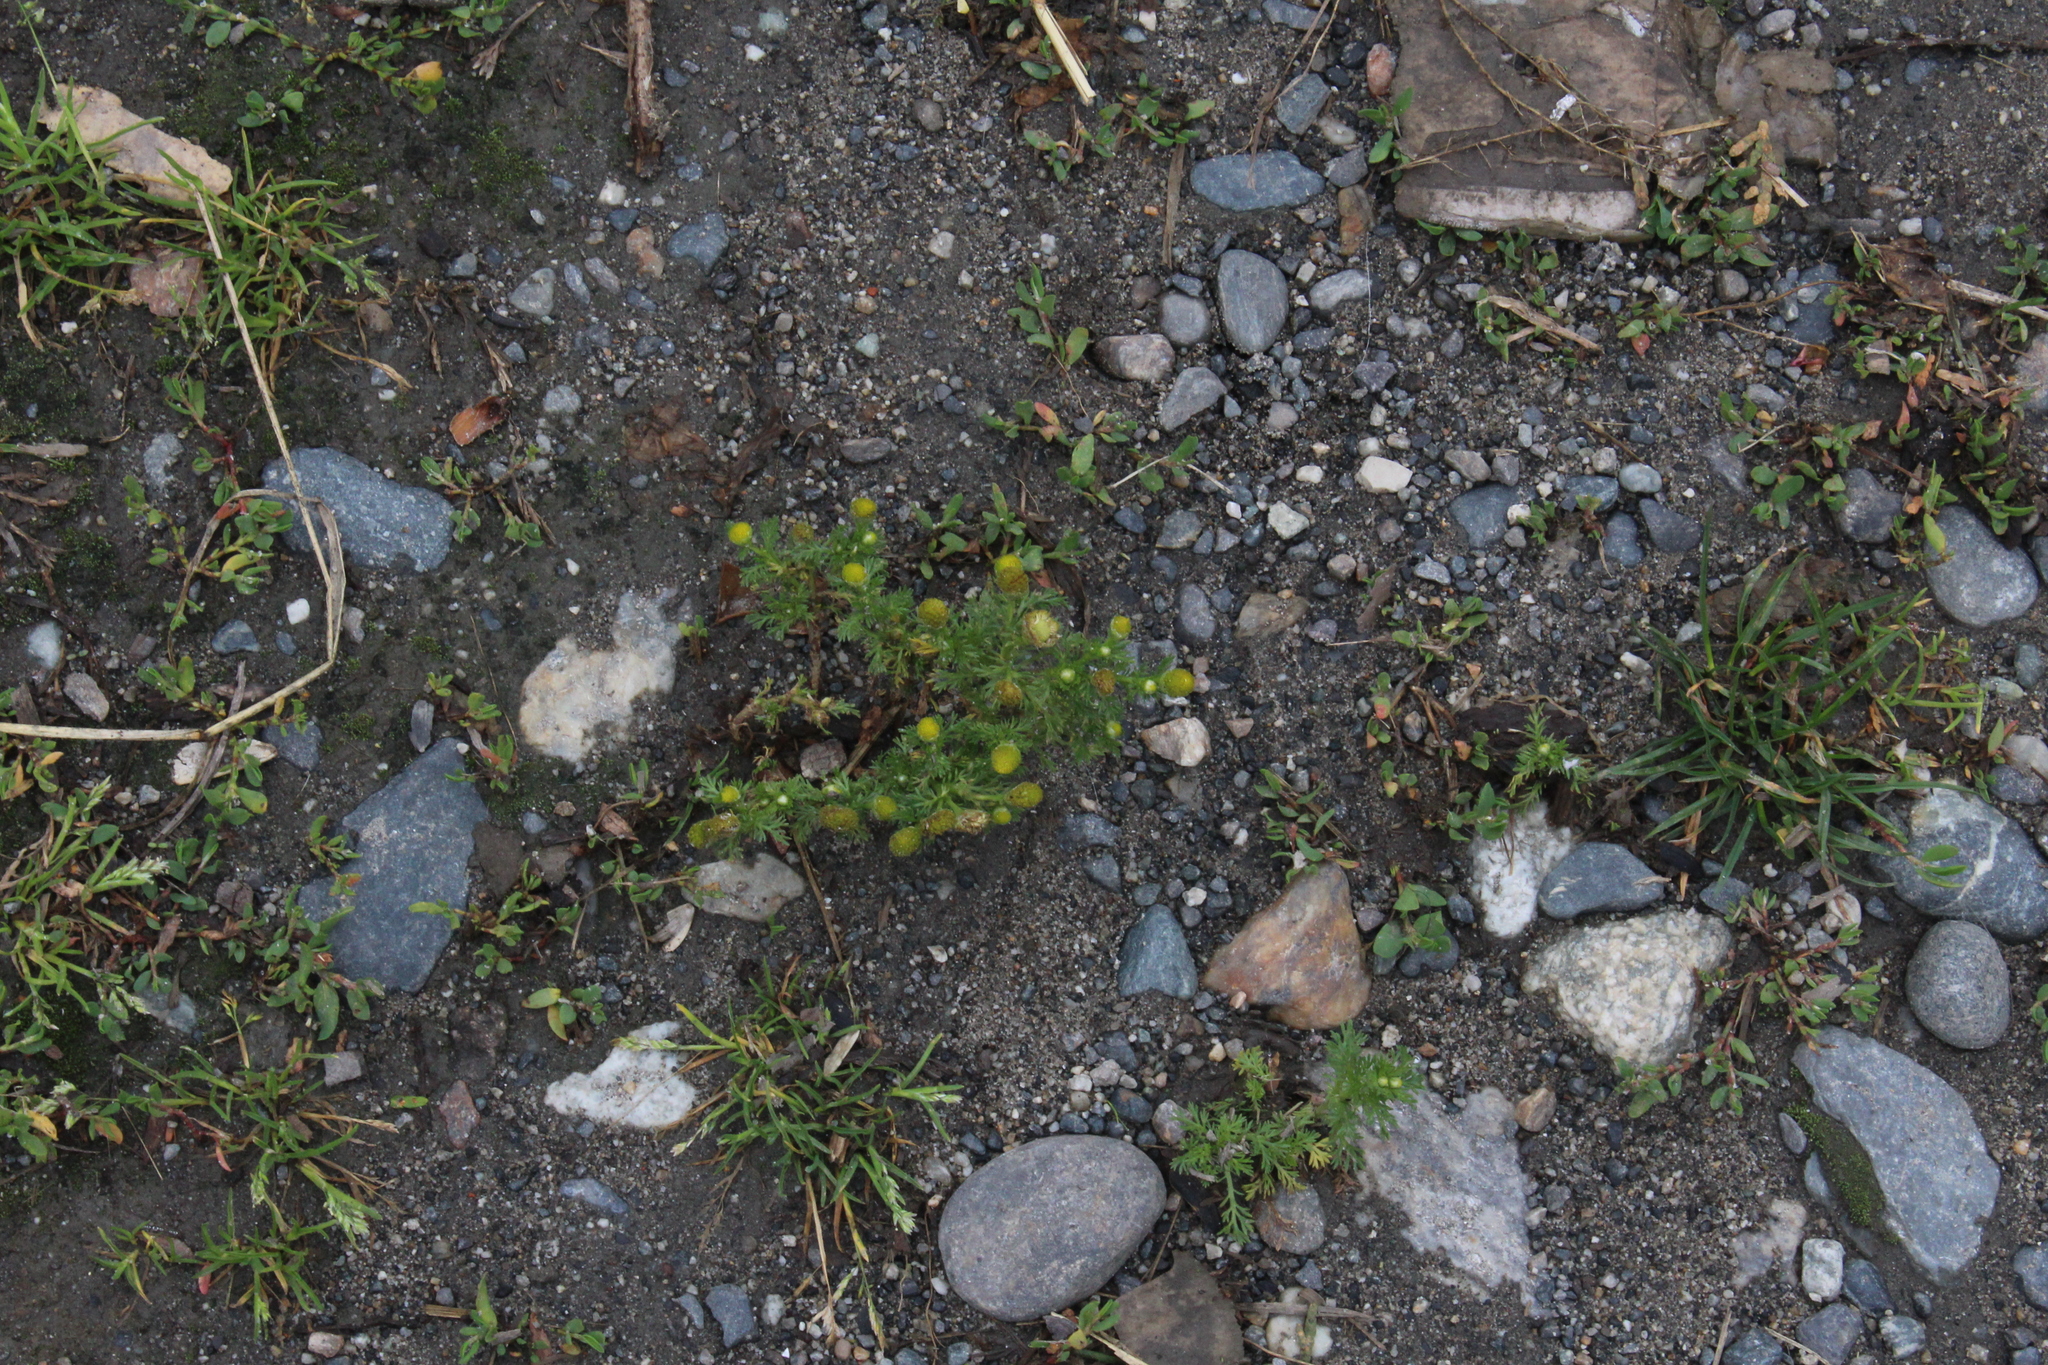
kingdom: Plantae
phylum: Tracheophyta
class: Magnoliopsida
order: Asterales
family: Asteraceae
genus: Matricaria
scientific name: Matricaria discoidea
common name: Disc mayweed
